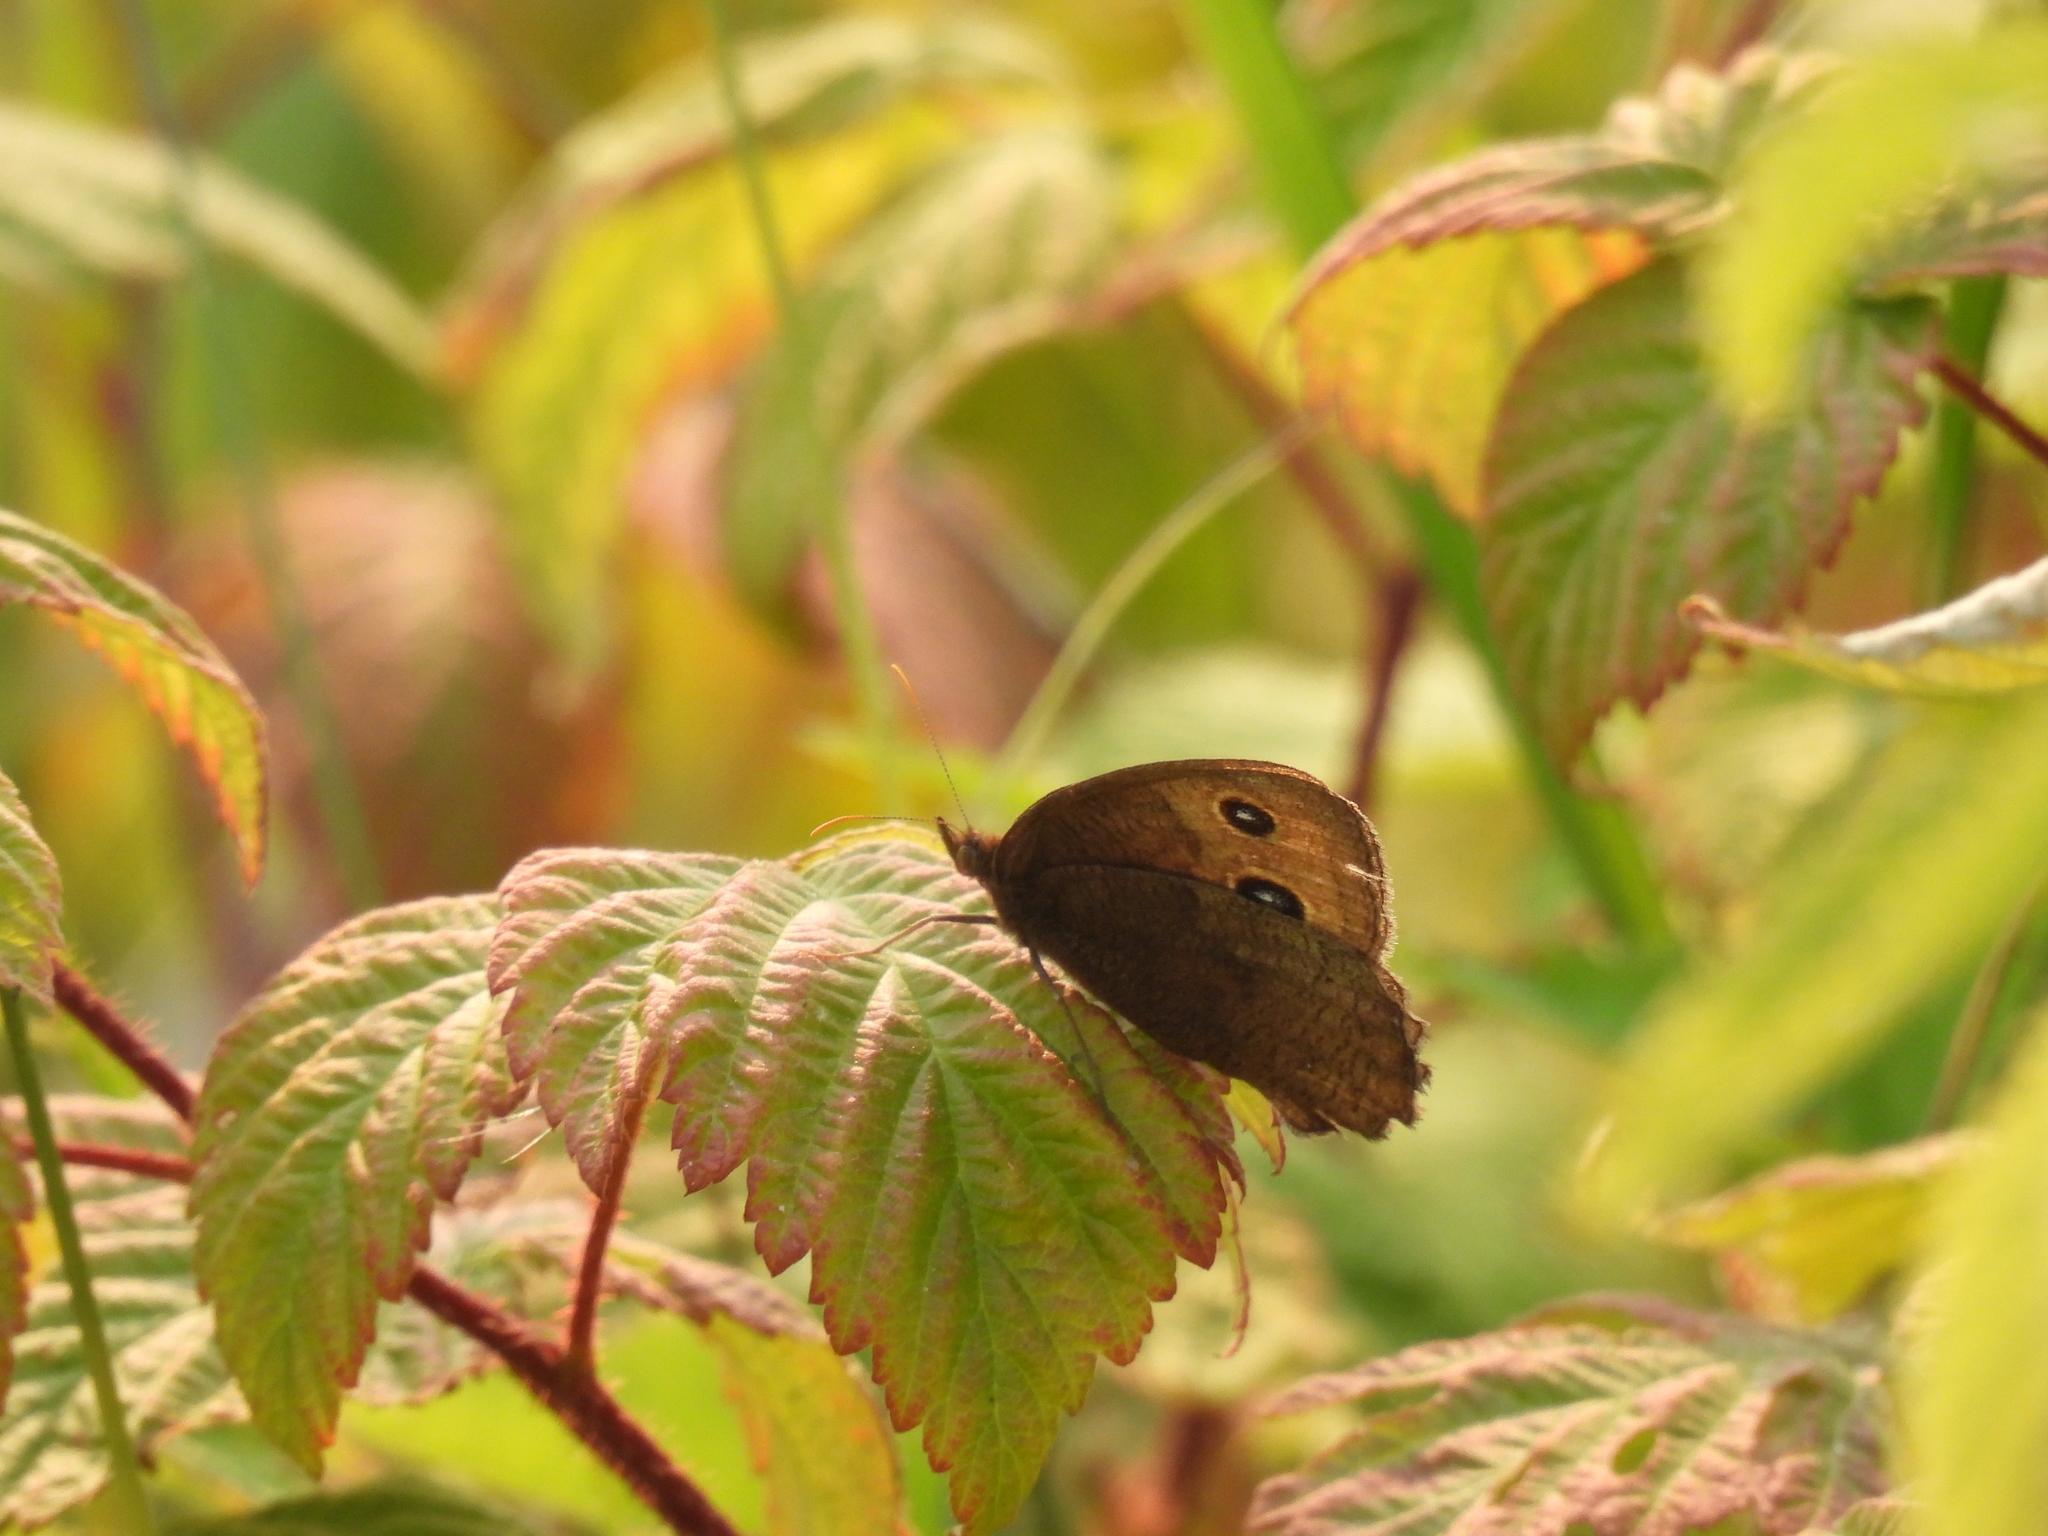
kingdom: Animalia
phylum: Arthropoda
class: Insecta
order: Lepidoptera
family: Nymphalidae
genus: Cercyonis
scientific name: Cercyonis pegala
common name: Common wood-nymph
